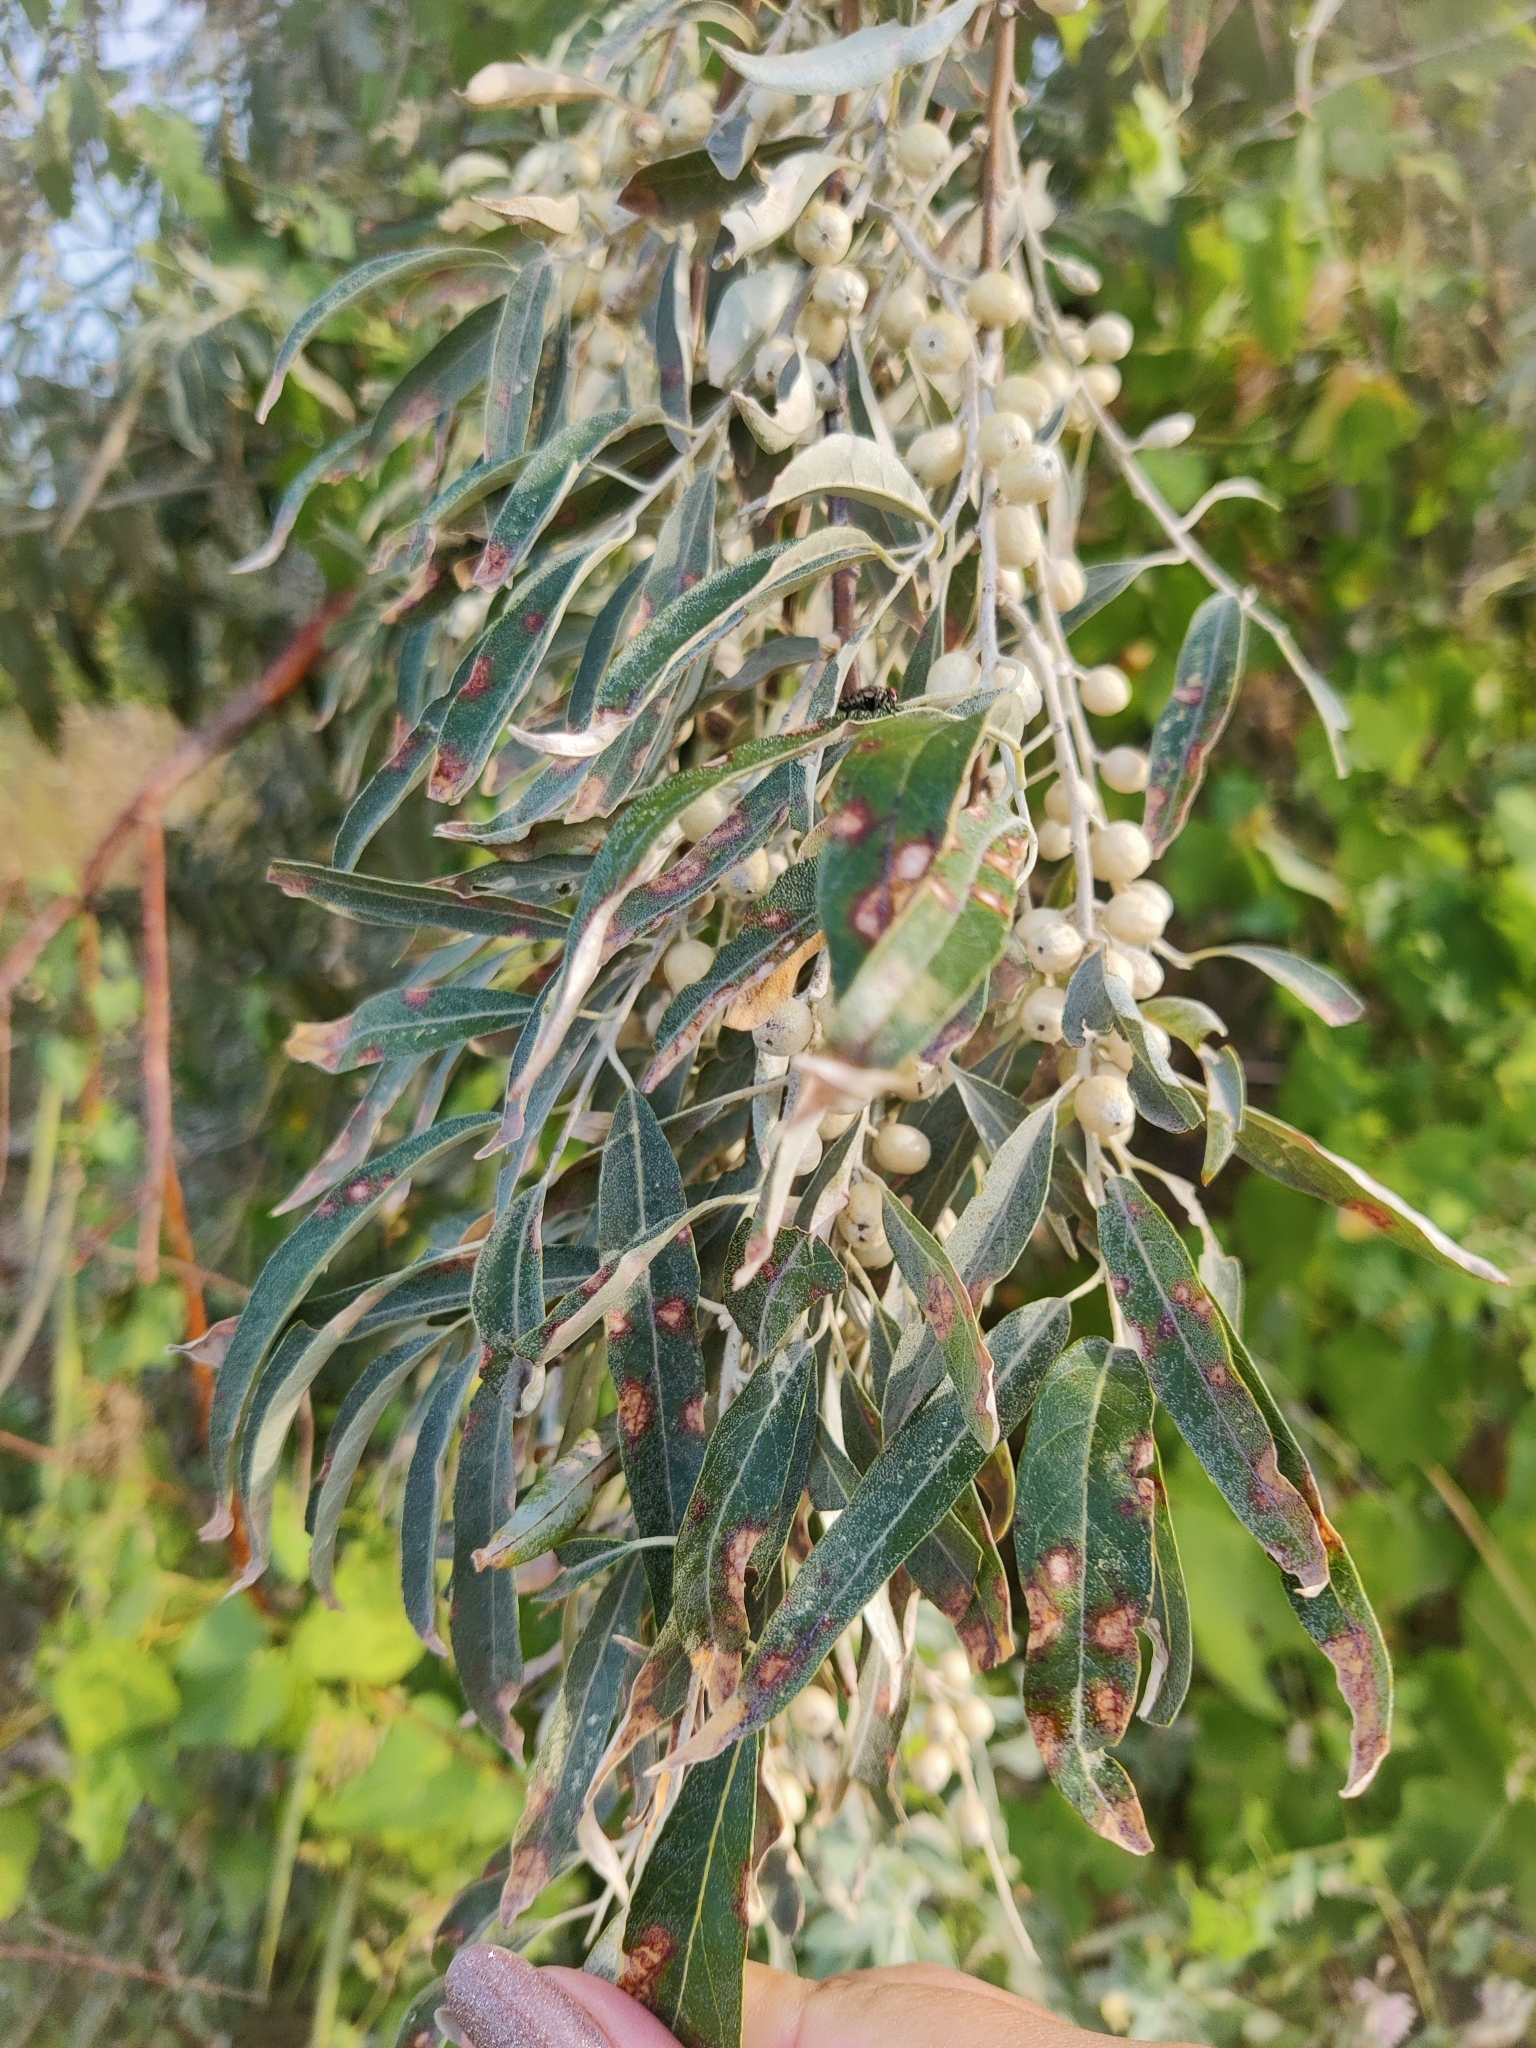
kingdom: Plantae
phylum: Tracheophyta
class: Magnoliopsida
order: Rosales
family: Elaeagnaceae
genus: Elaeagnus
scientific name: Elaeagnus angustifolia
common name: Russian olive
